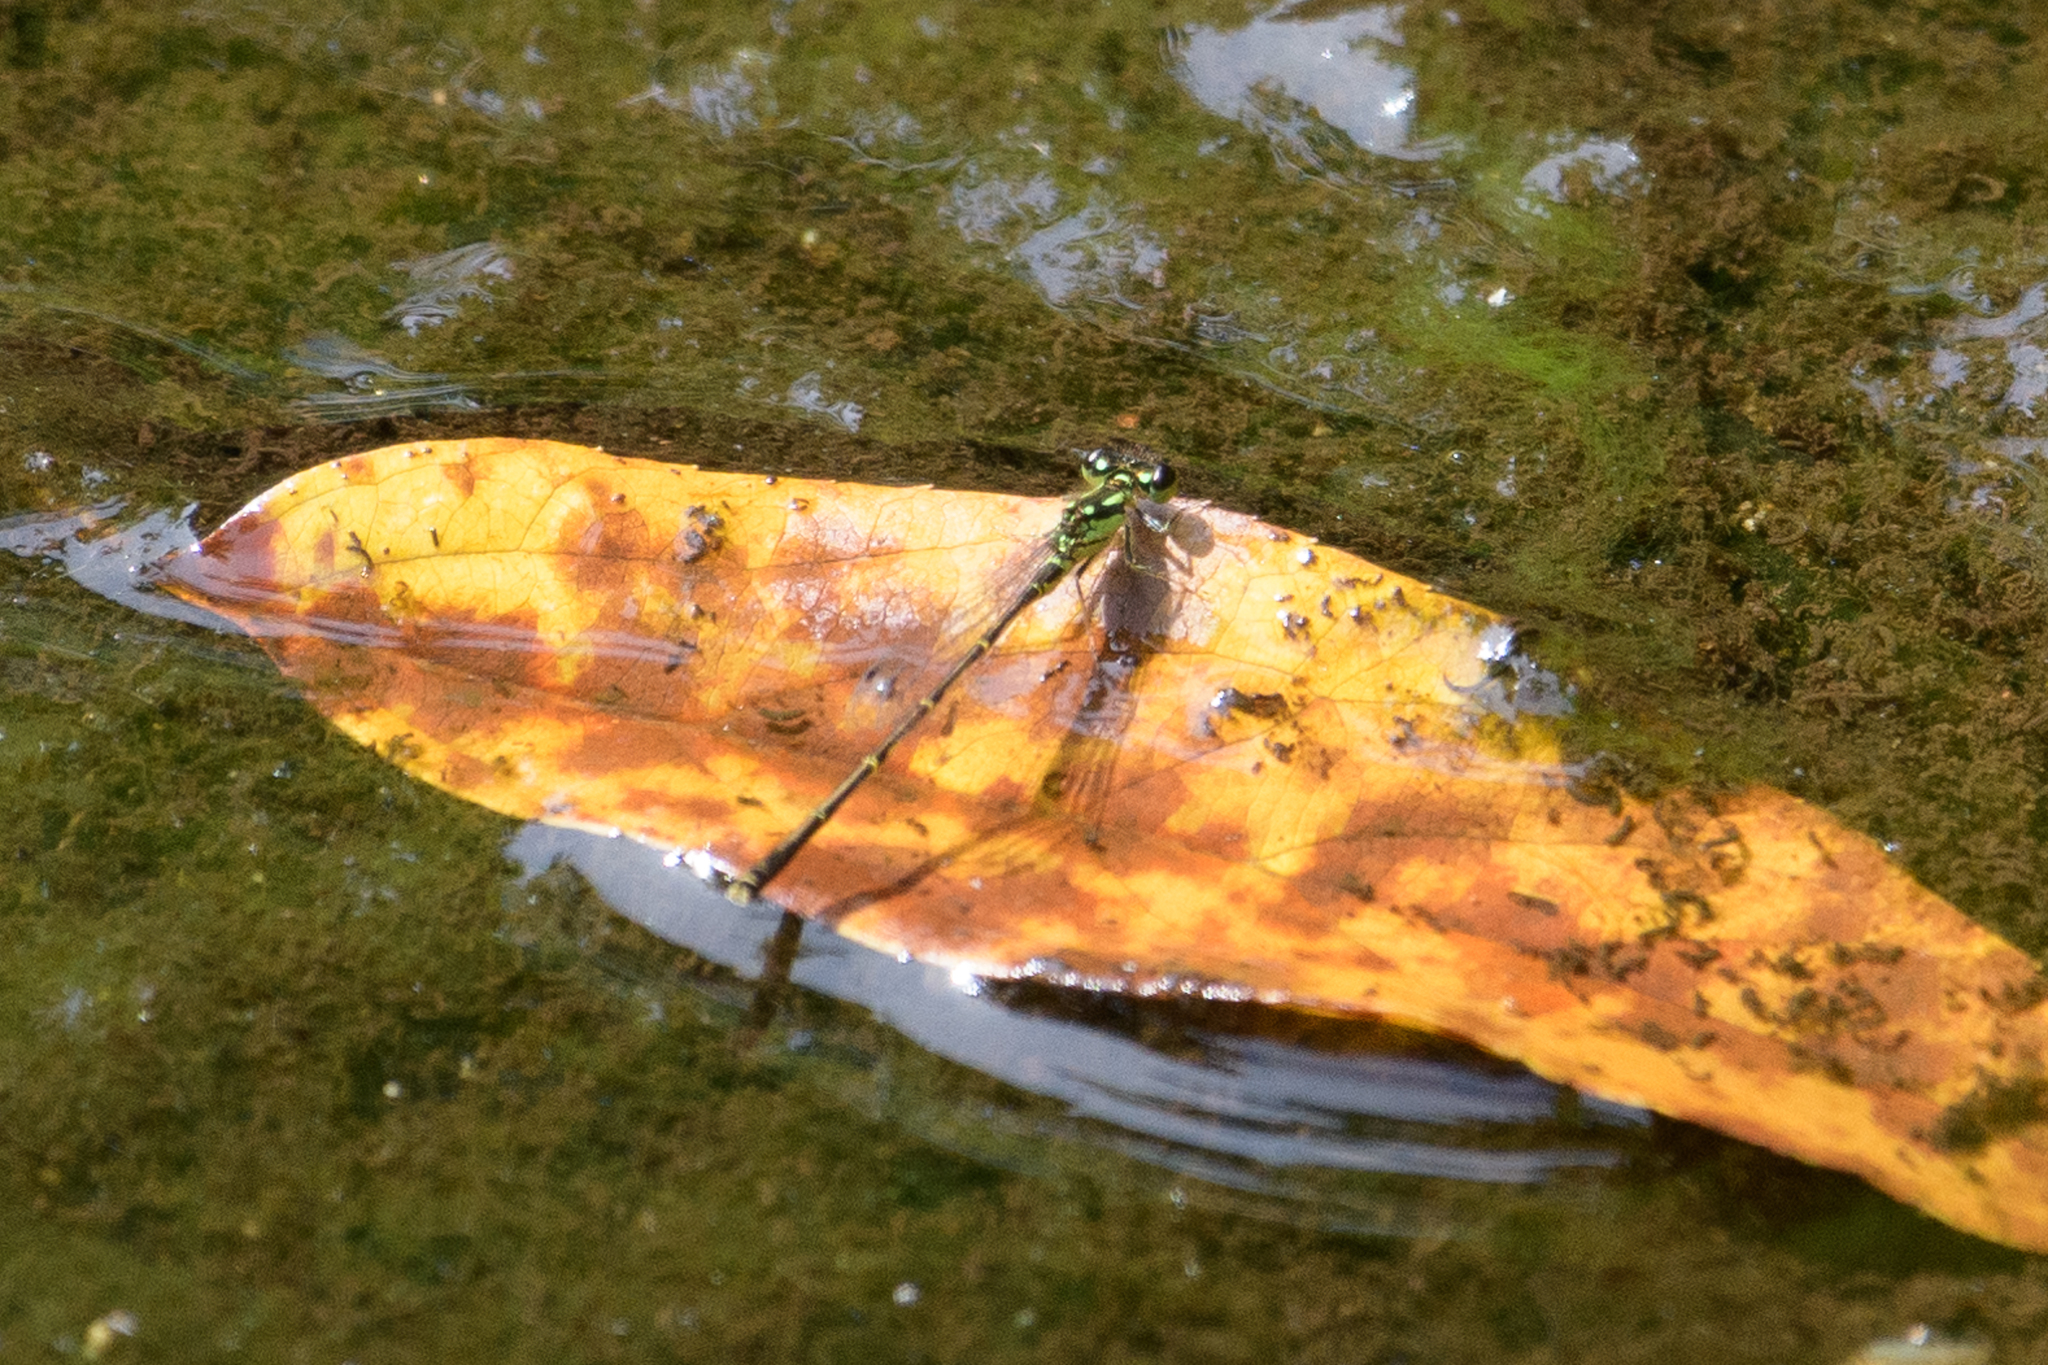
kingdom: Animalia
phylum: Arthropoda
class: Insecta
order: Odonata
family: Coenagrionidae
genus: Ischnura
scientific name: Ischnura posita
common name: Fragile forktail
